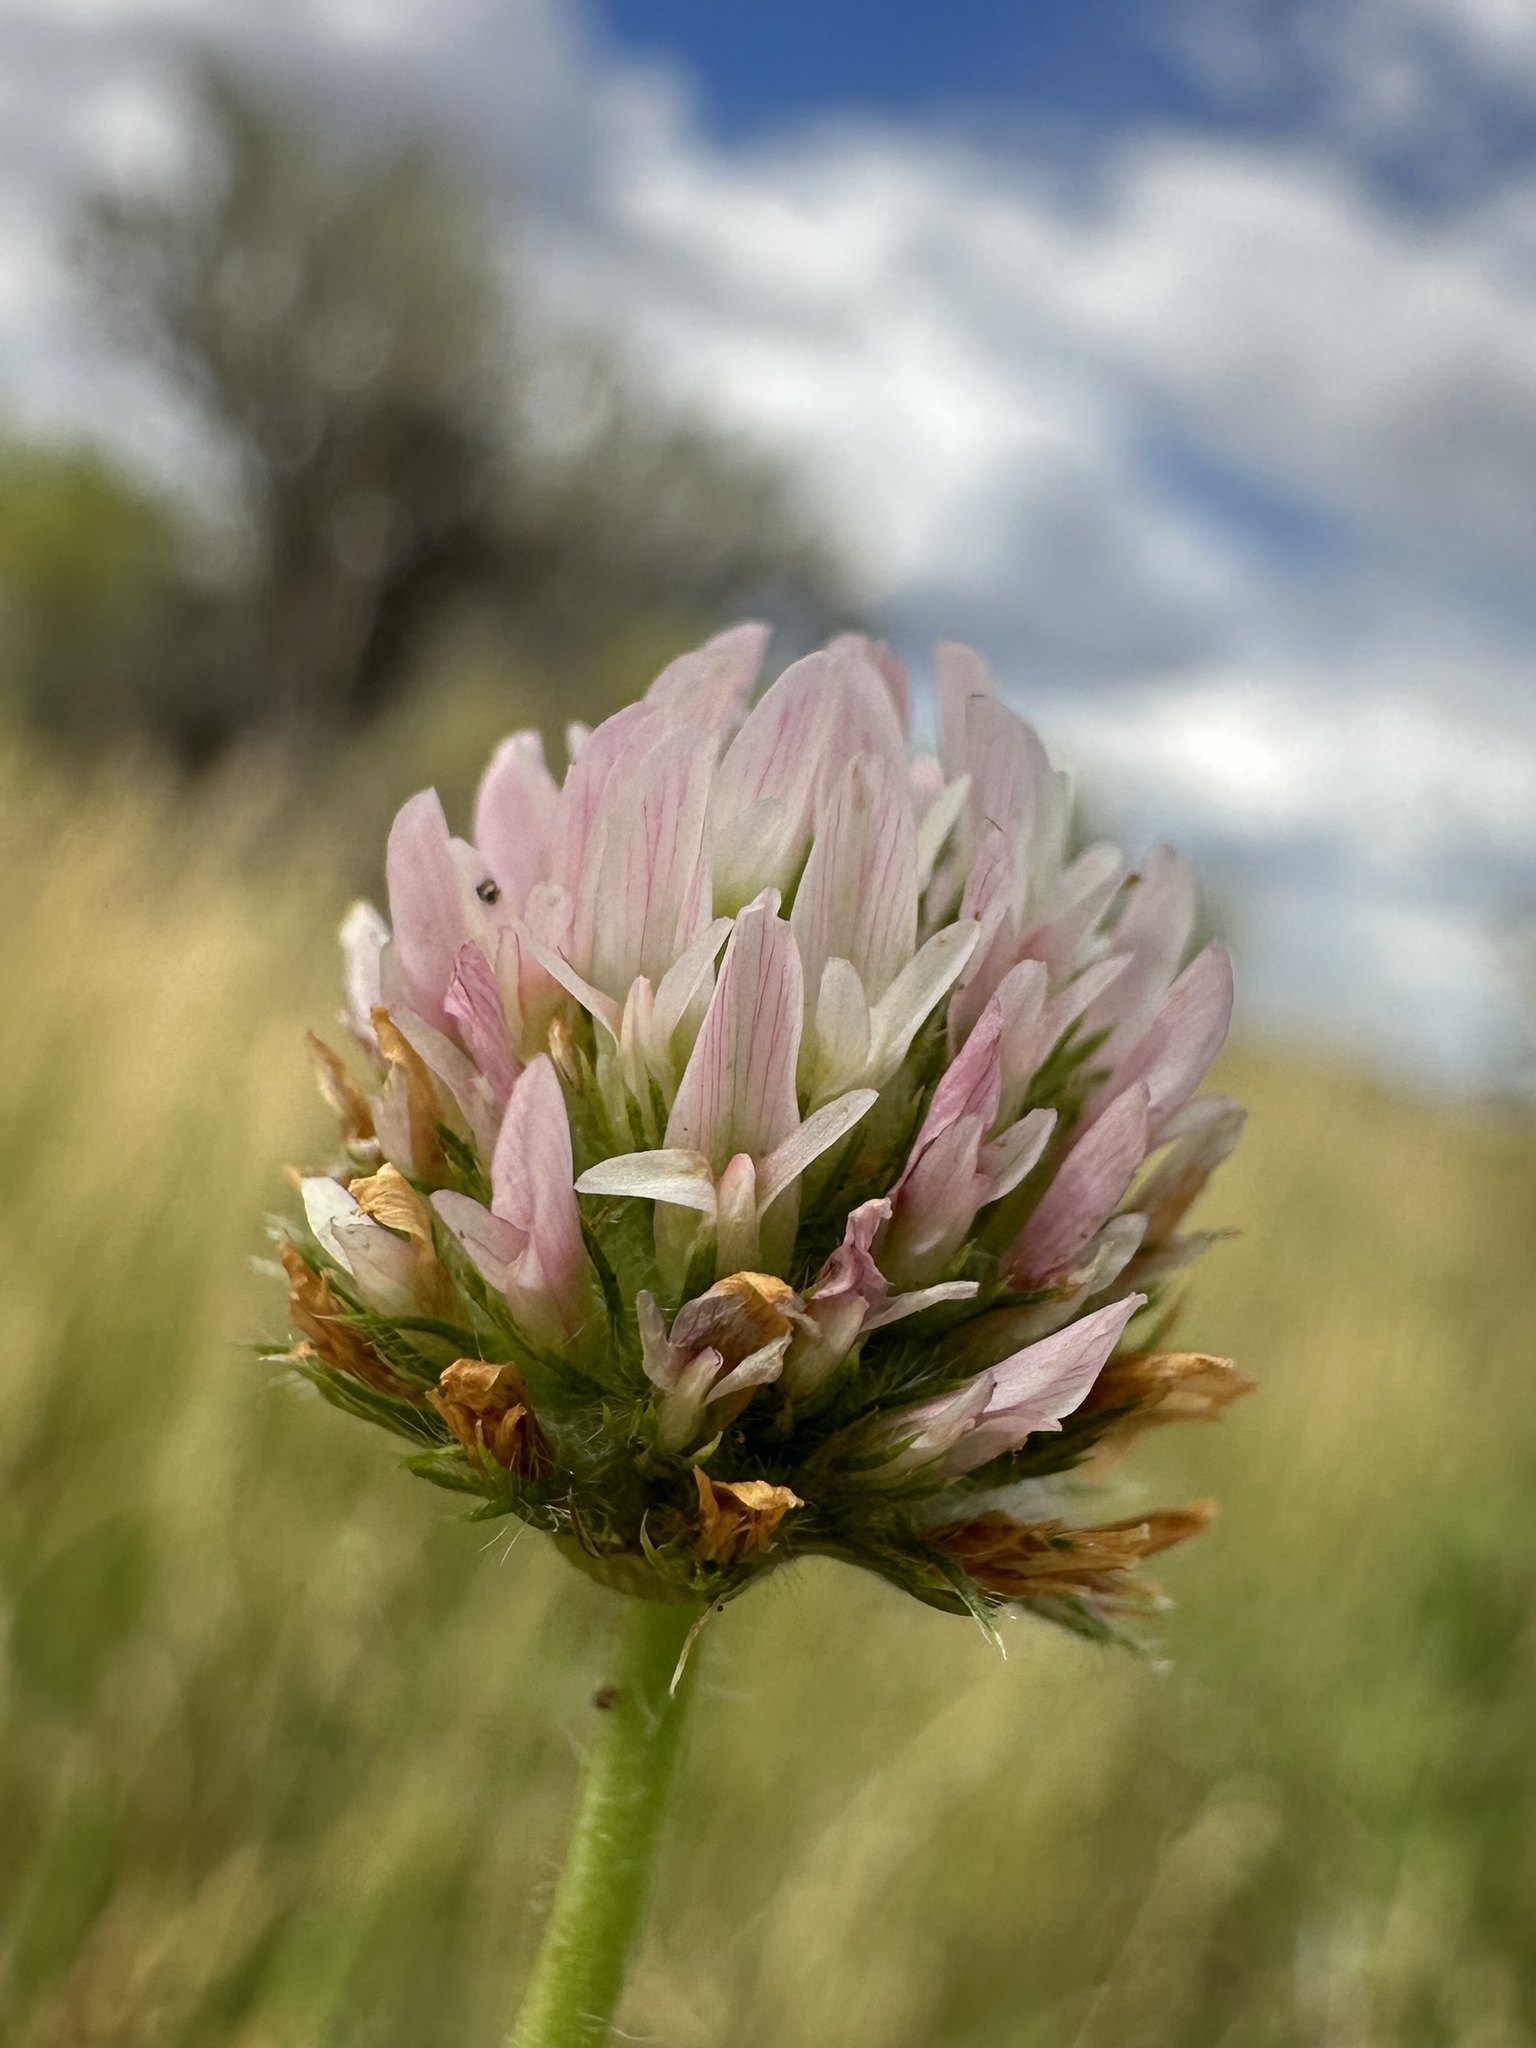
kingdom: Plantae
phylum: Tracheophyta
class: Magnoliopsida
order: Fabales
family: Fabaceae
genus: Trifolium
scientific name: Trifolium fragiferum
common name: Strawberry clover
